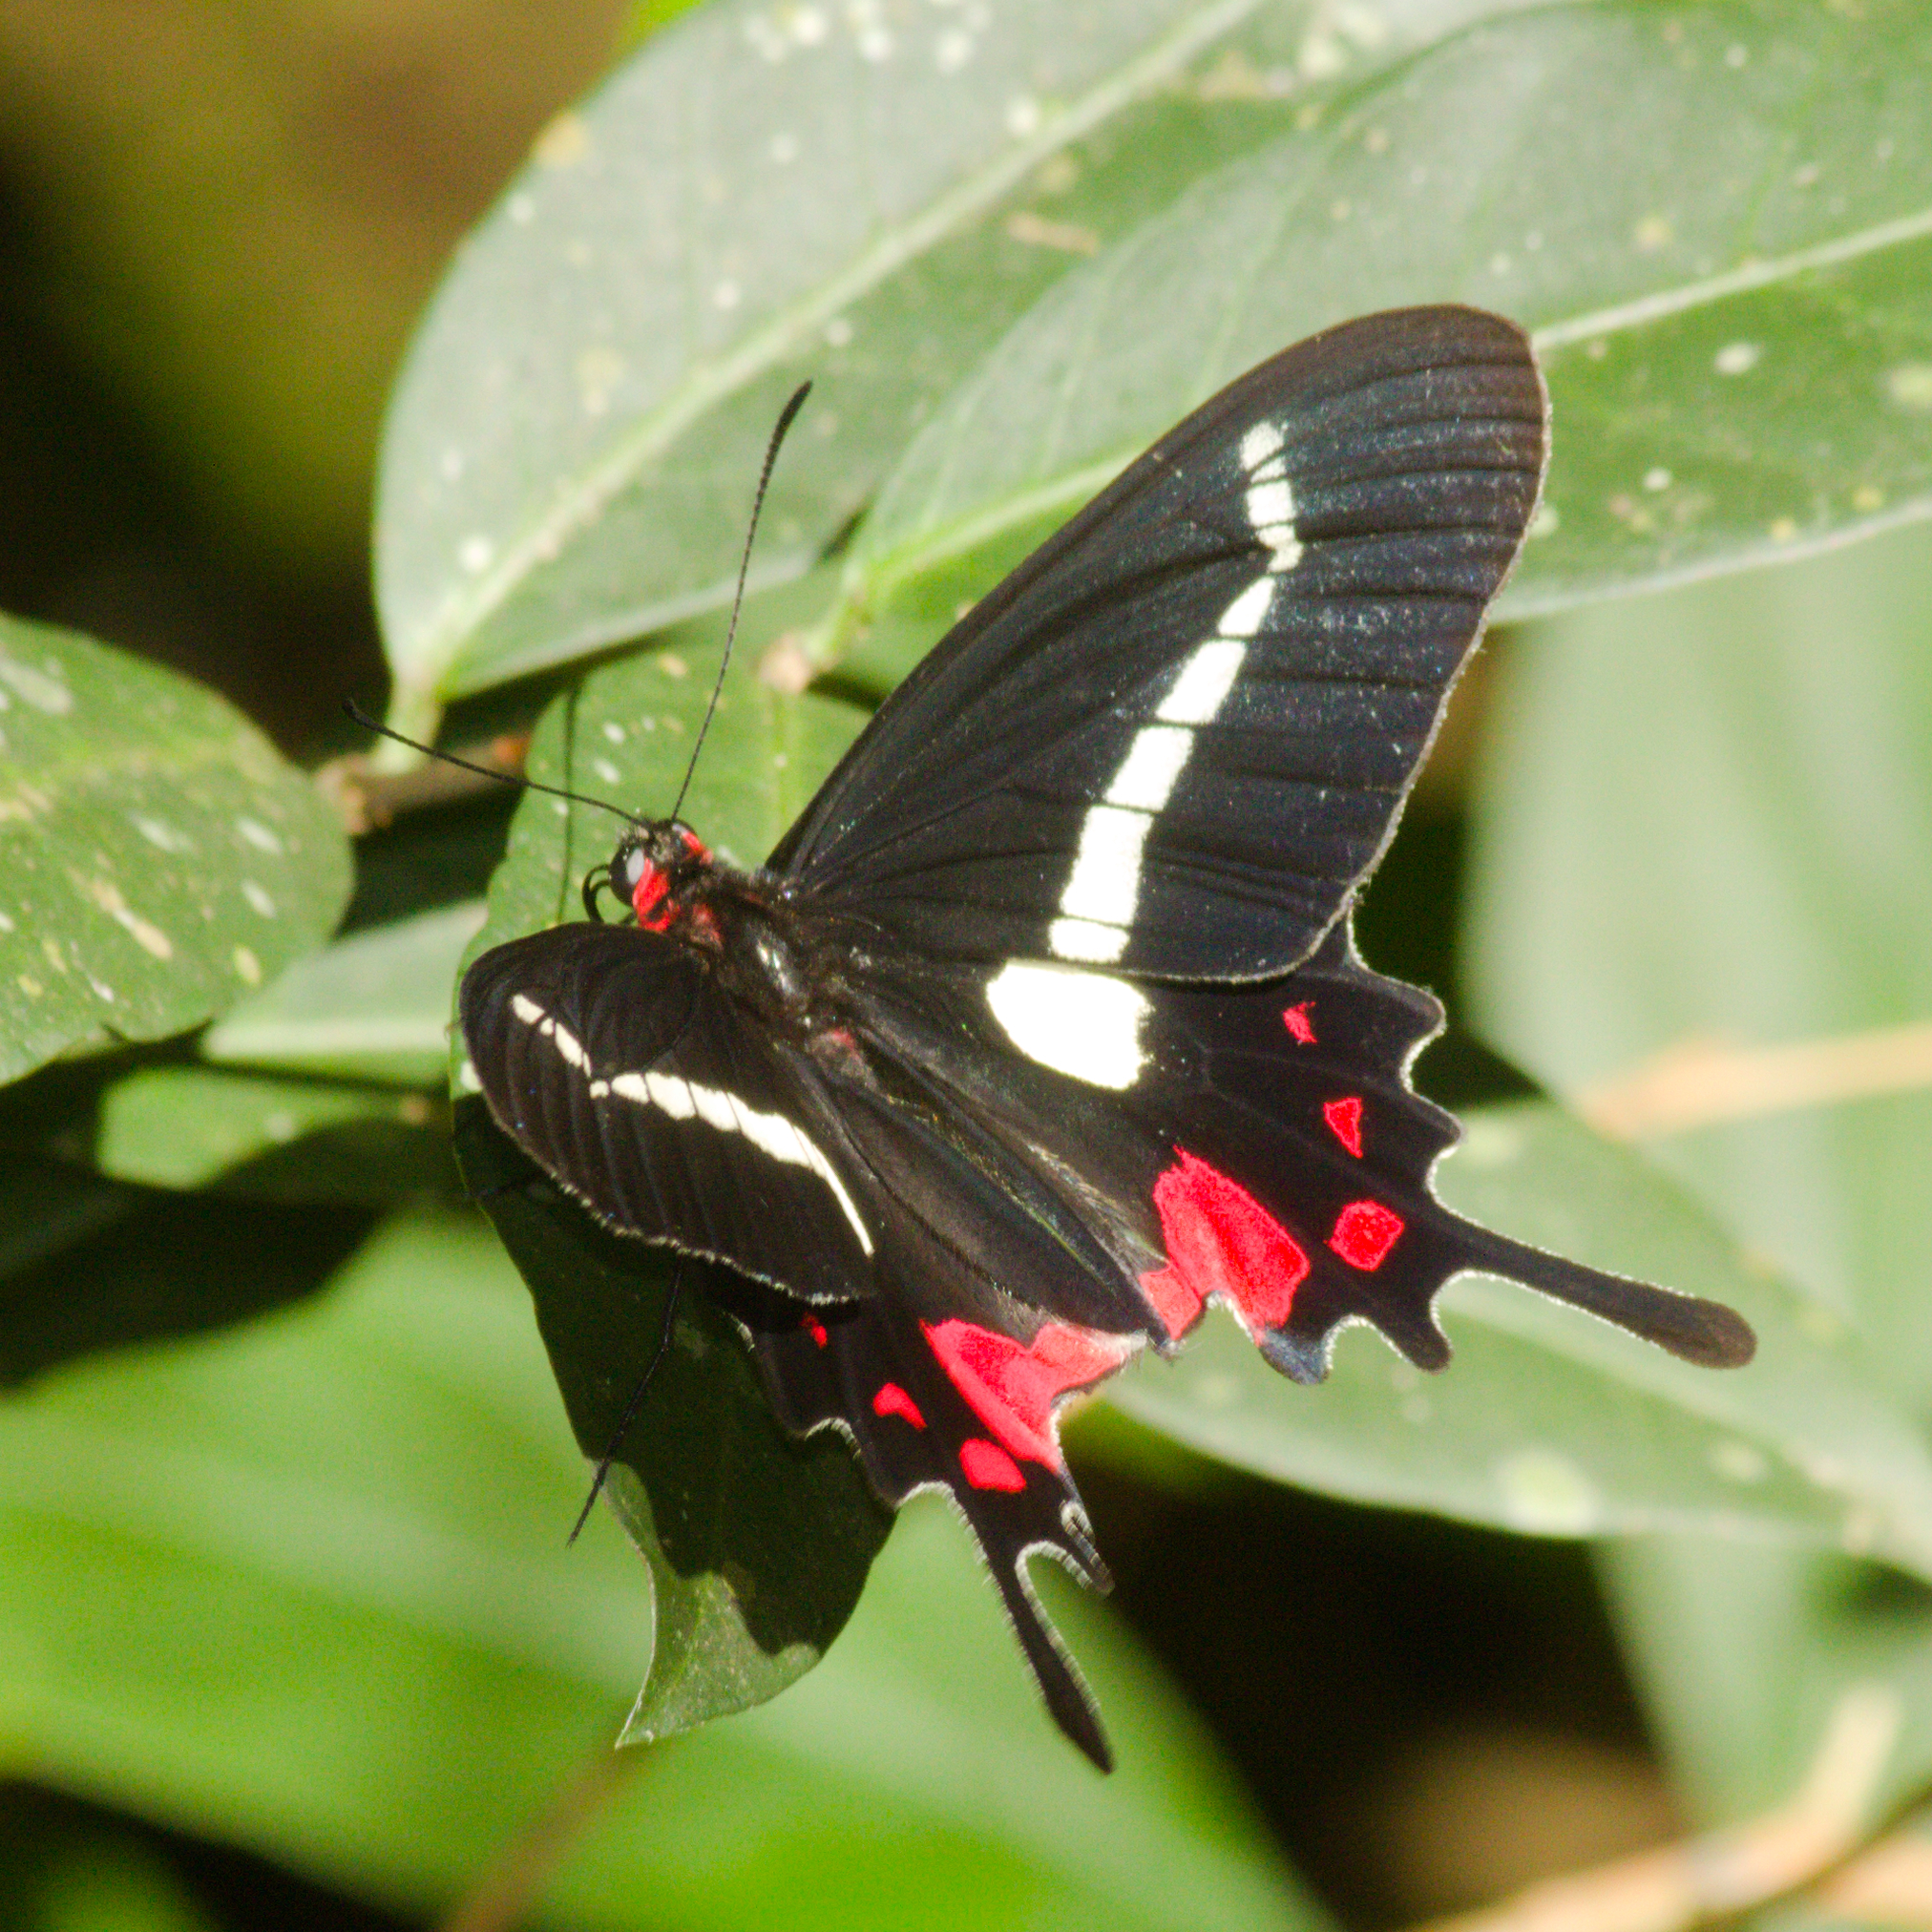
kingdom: Animalia
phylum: Arthropoda
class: Insecta
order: Lepidoptera
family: Papilionidae
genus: Parides
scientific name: Parides agavus
